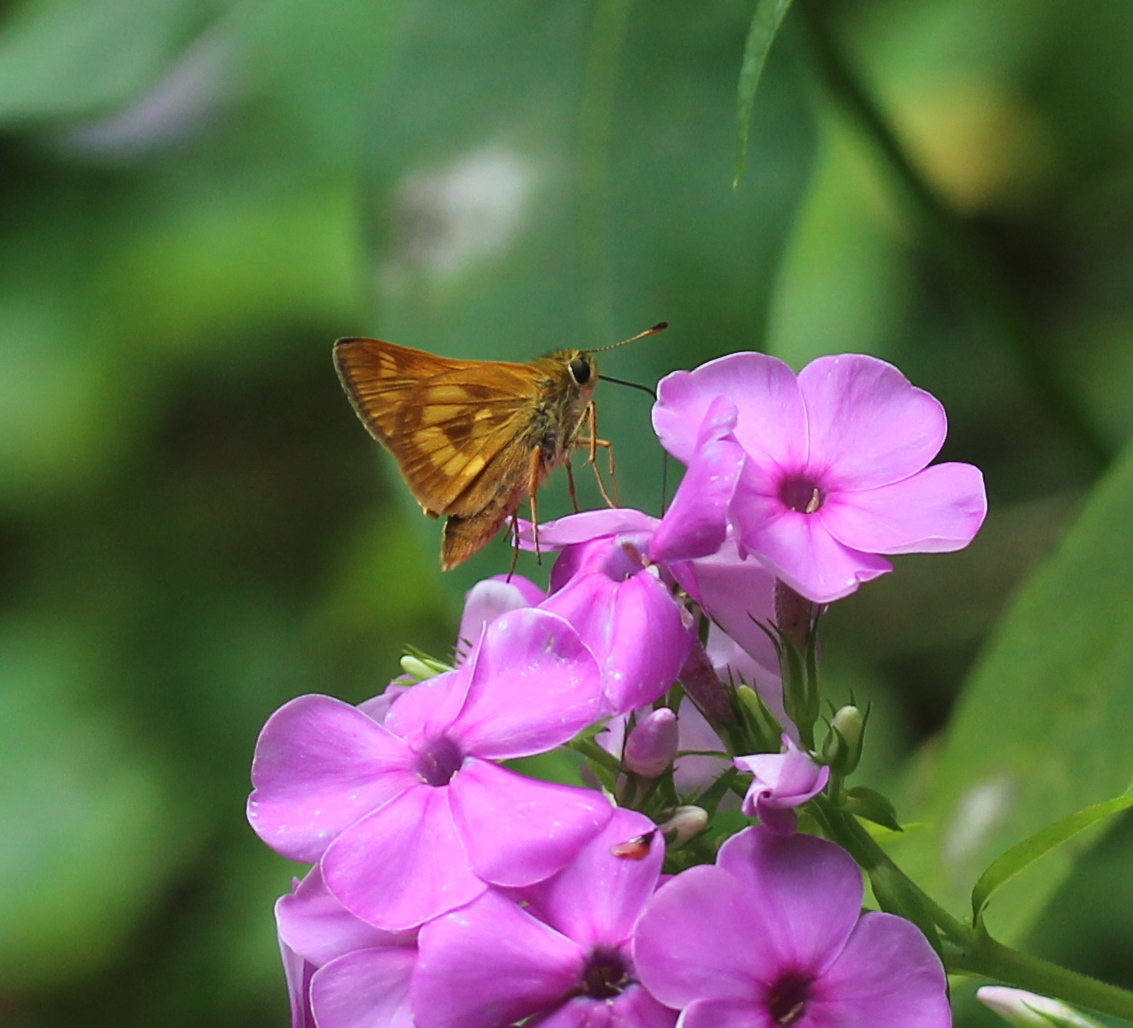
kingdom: Animalia
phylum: Arthropoda
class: Insecta
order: Lepidoptera
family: Hesperiidae
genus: Polites
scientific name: Polites mystic
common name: Long dash
